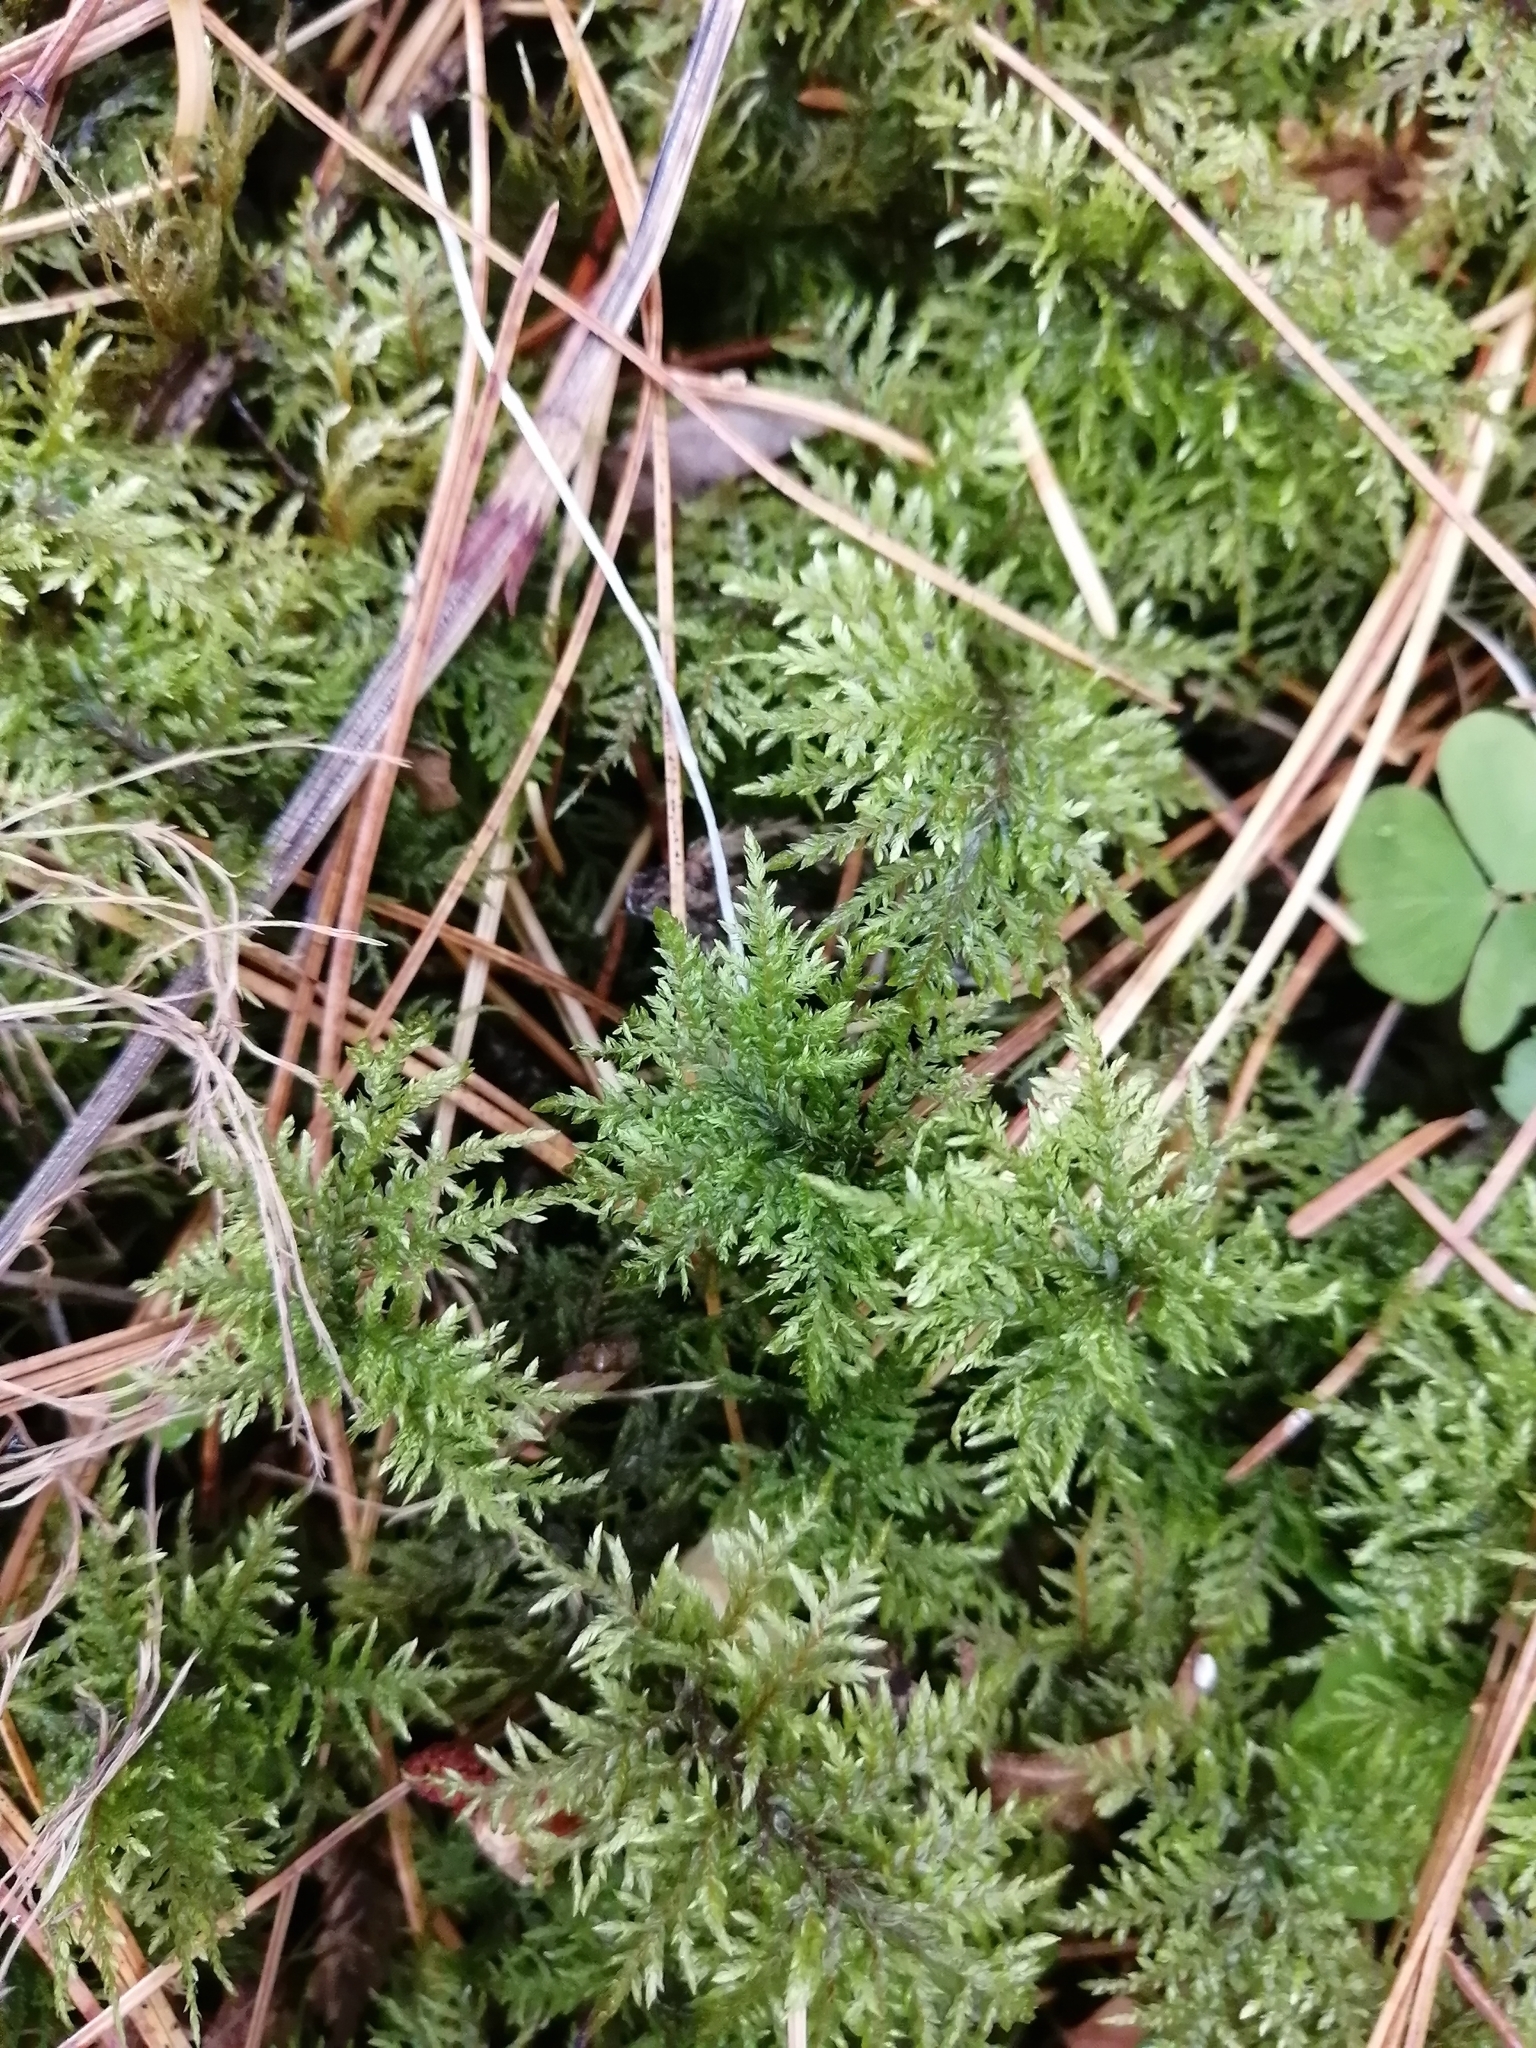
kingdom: Plantae
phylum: Bryophyta
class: Bryopsida
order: Hypnales
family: Hylocomiaceae
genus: Hylocomium
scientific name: Hylocomium splendens
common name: Stairstep moss
